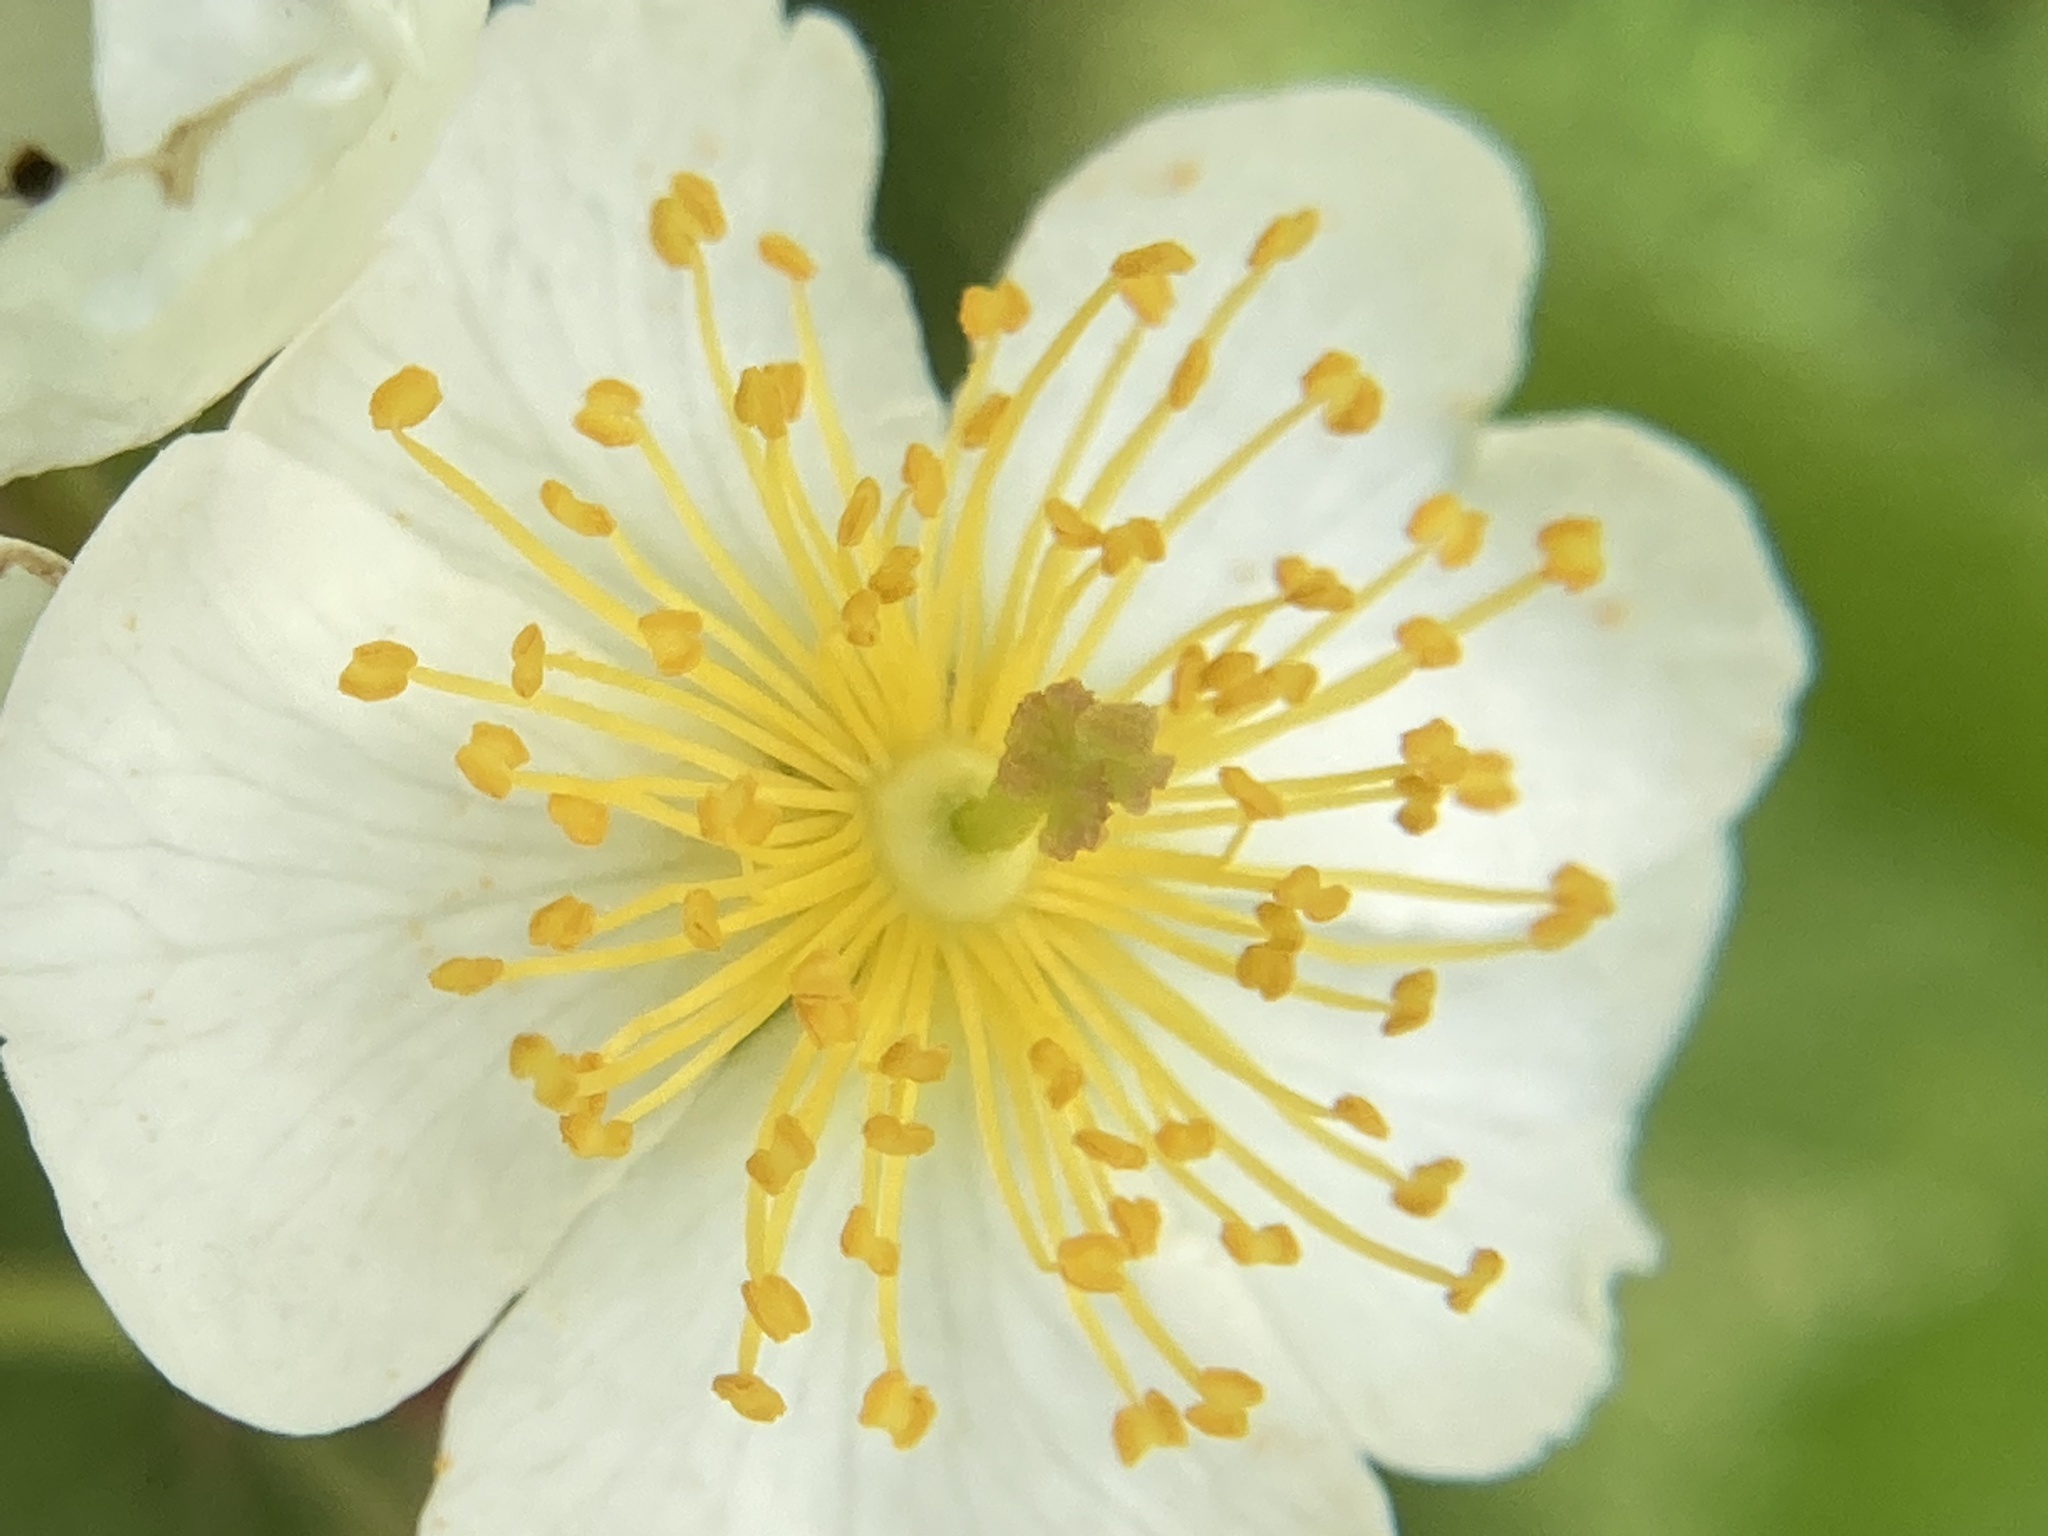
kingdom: Plantae
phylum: Tracheophyta
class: Magnoliopsida
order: Rosales
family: Rosaceae
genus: Rosa
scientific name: Rosa multiflora
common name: Multiflora rose
